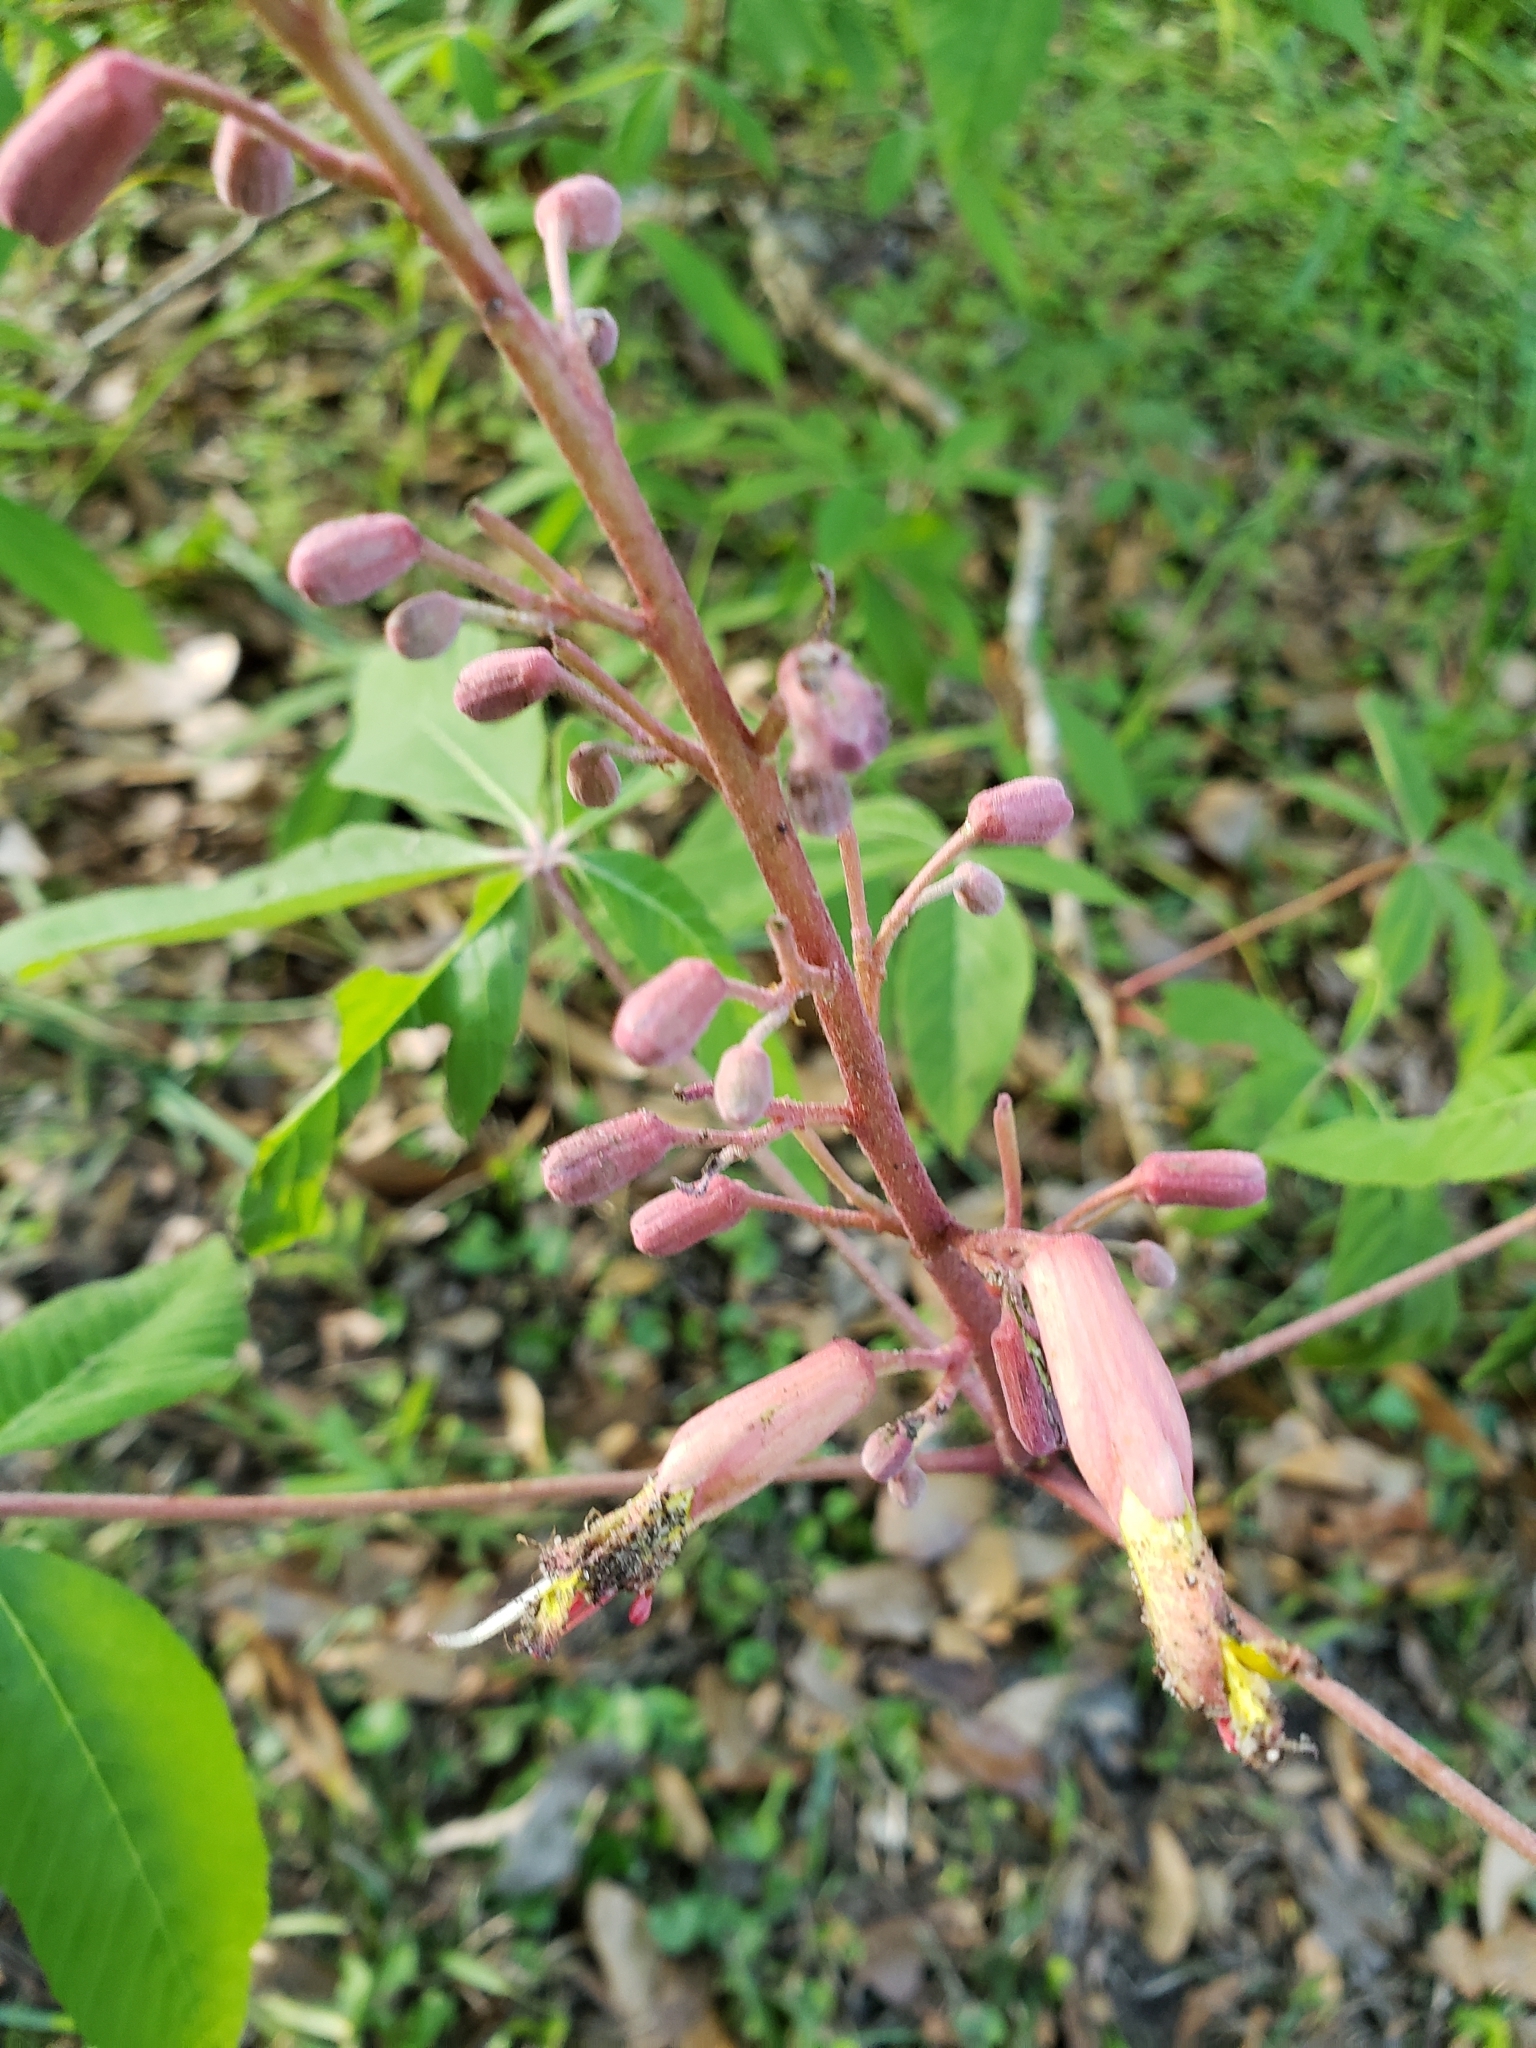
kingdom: Plantae
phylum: Tracheophyta
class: Magnoliopsida
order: Sapindales
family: Sapindaceae
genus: Aesculus
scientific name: Aesculus pavia
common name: Red buckeye
